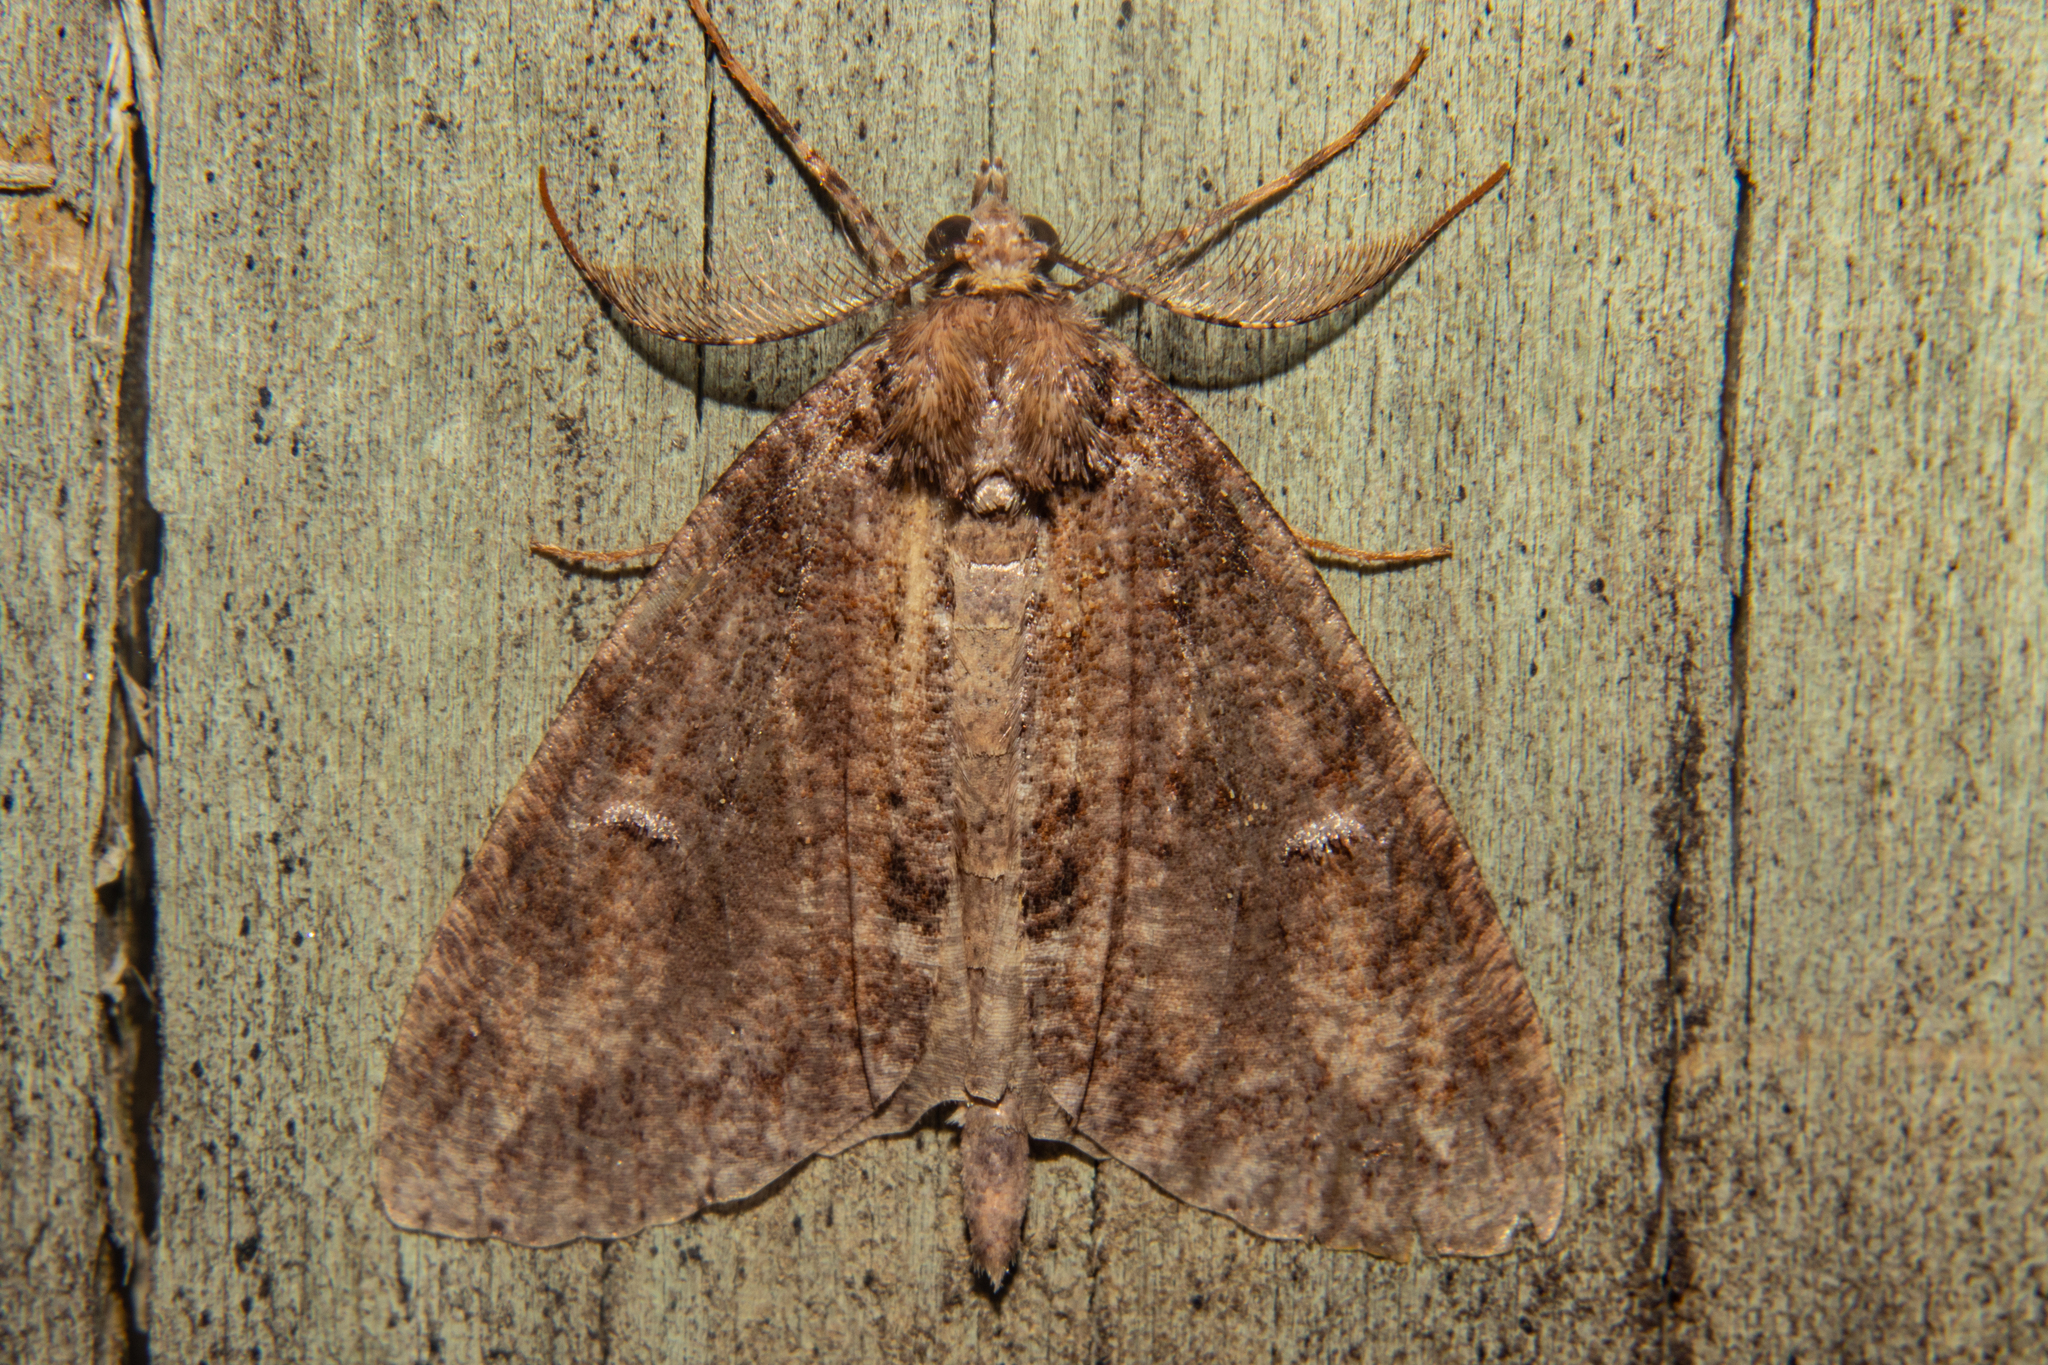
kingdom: Animalia
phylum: Arthropoda
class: Insecta
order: Lepidoptera
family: Geometridae
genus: Pseudocoremia
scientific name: Pseudocoremia suavis
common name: Common forest looper
